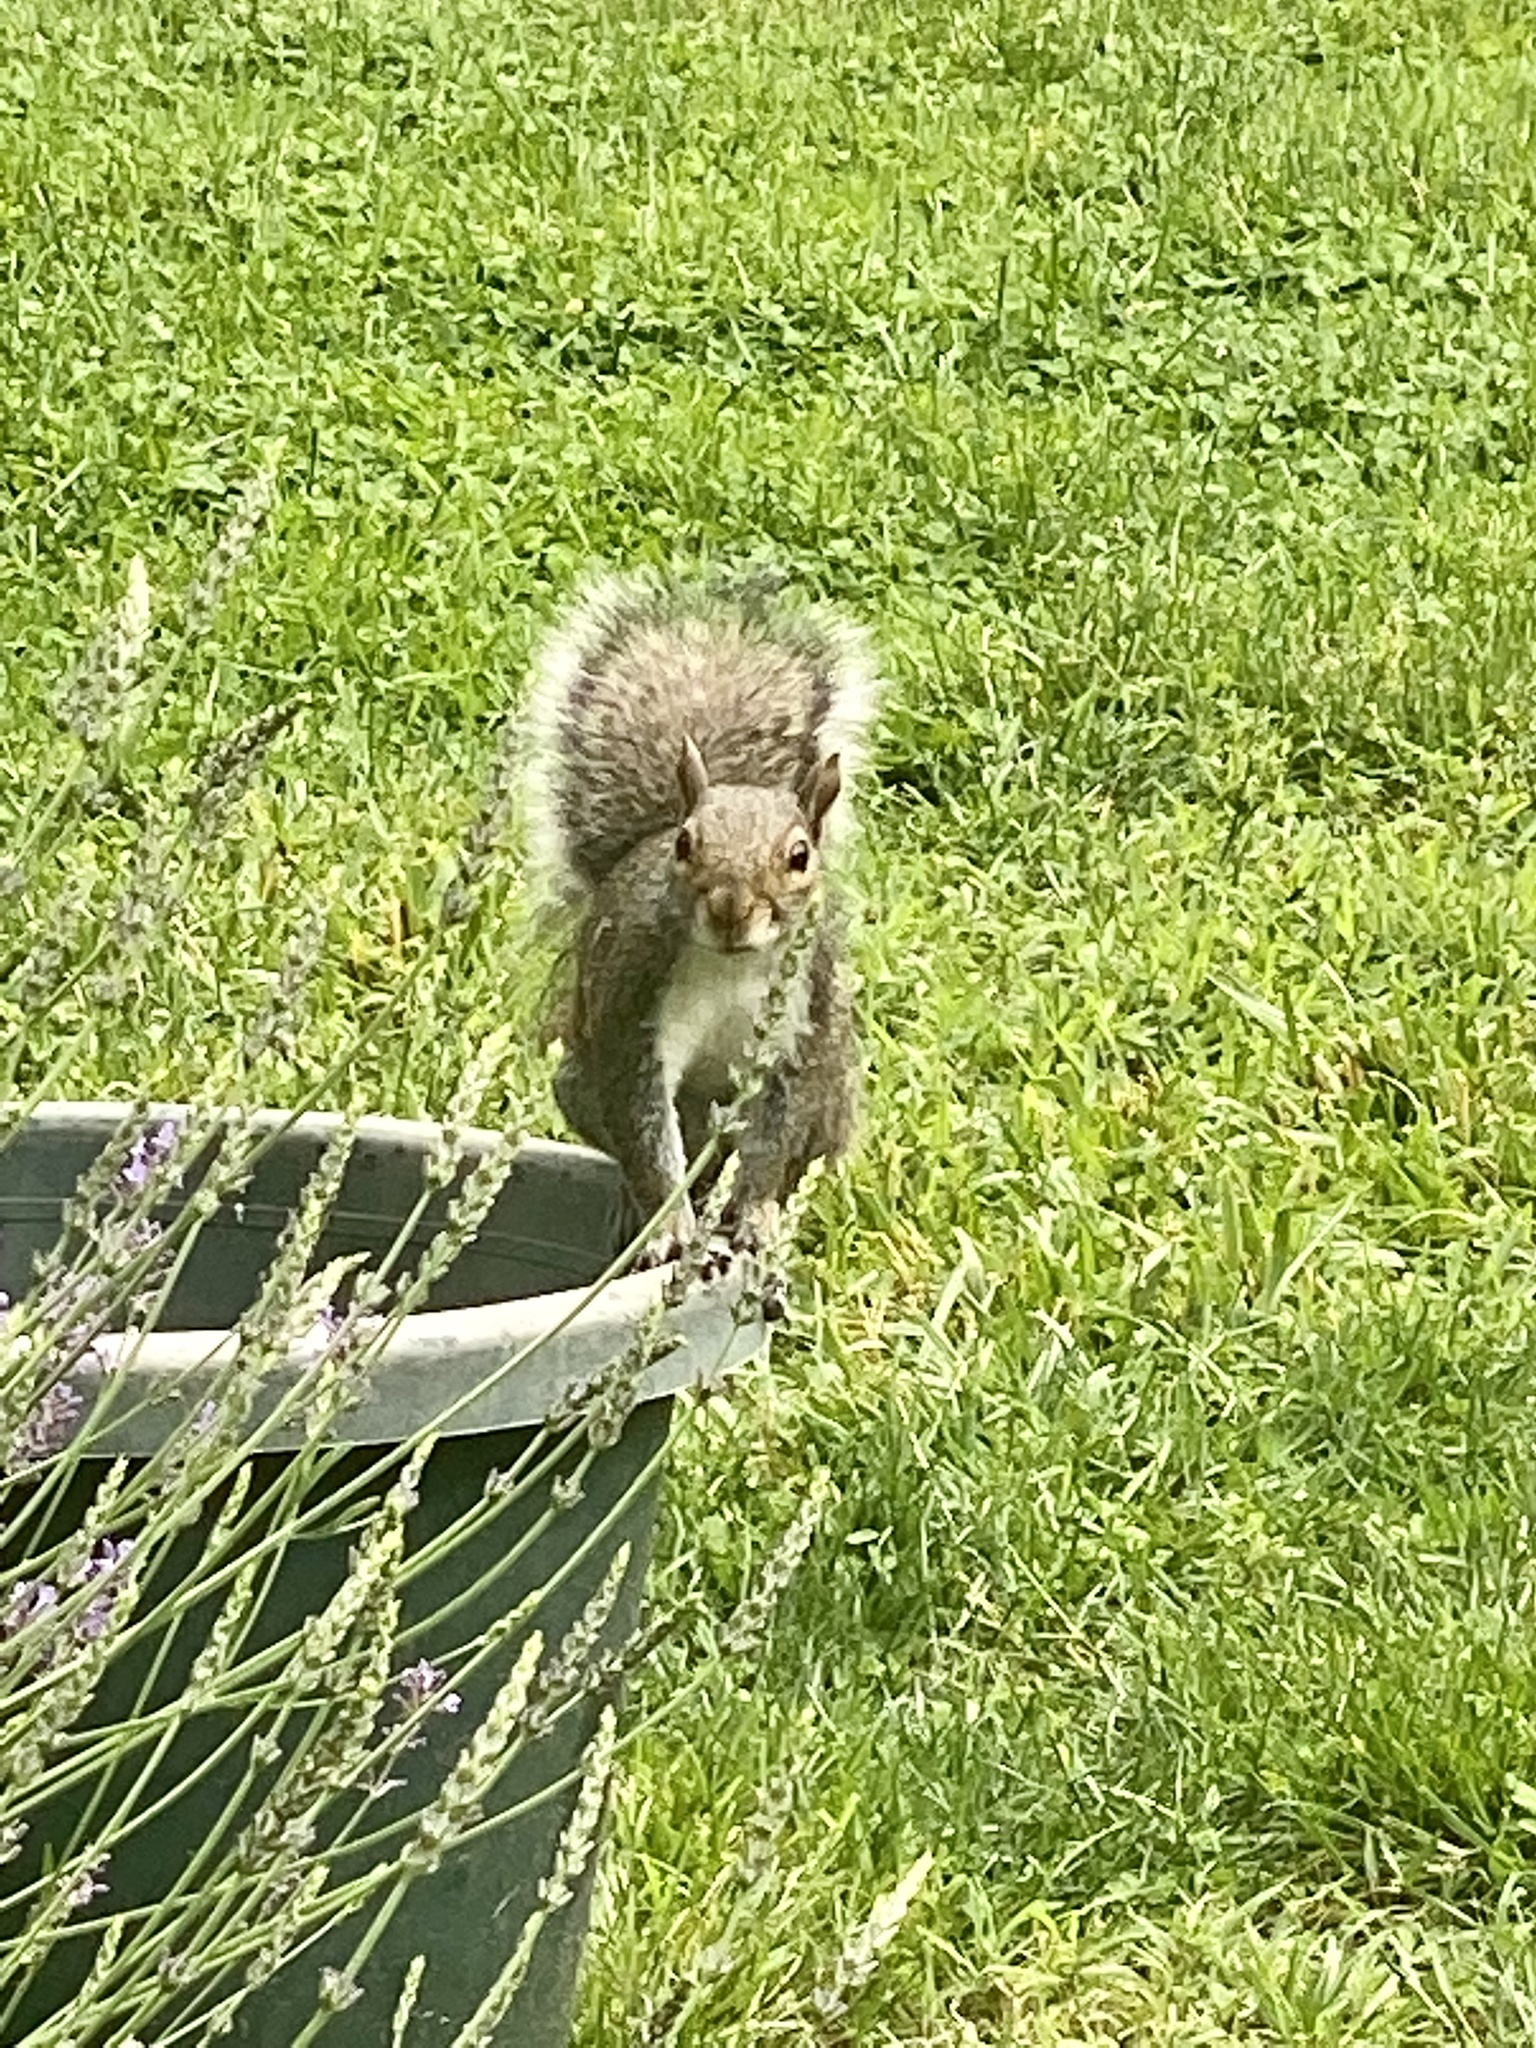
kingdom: Animalia
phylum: Chordata
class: Mammalia
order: Rodentia
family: Sciuridae
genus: Sciurus
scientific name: Sciurus carolinensis
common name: Eastern gray squirrel
